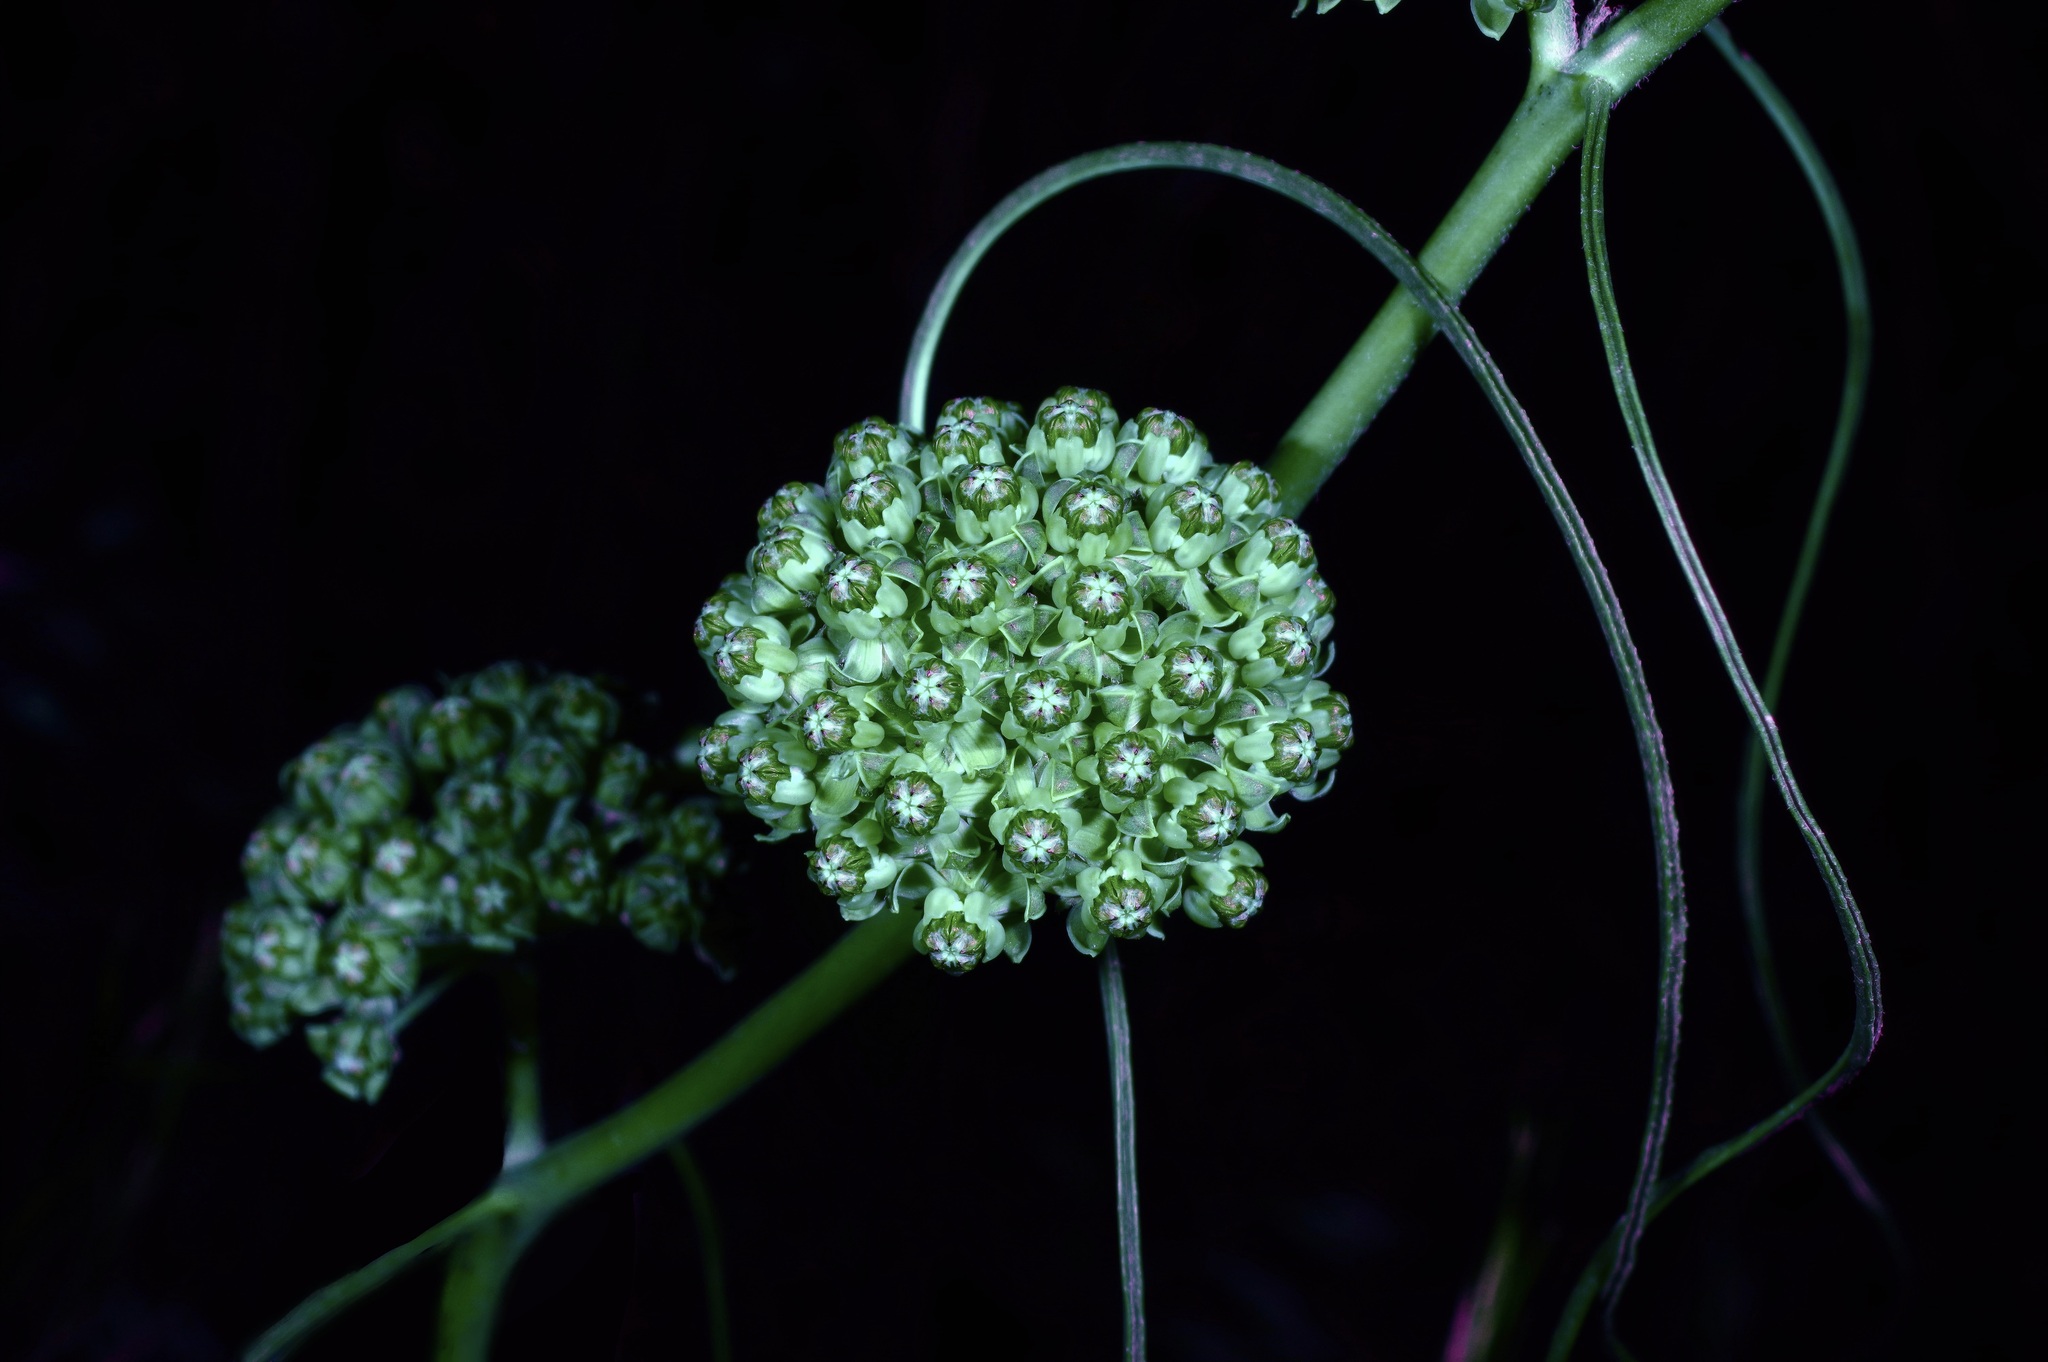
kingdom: Plantae
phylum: Tracheophyta
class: Magnoliopsida
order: Gentianales
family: Apocynaceae
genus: Asclepias
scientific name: Asclepias engelmanniana
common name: Engelmann's milkweed
